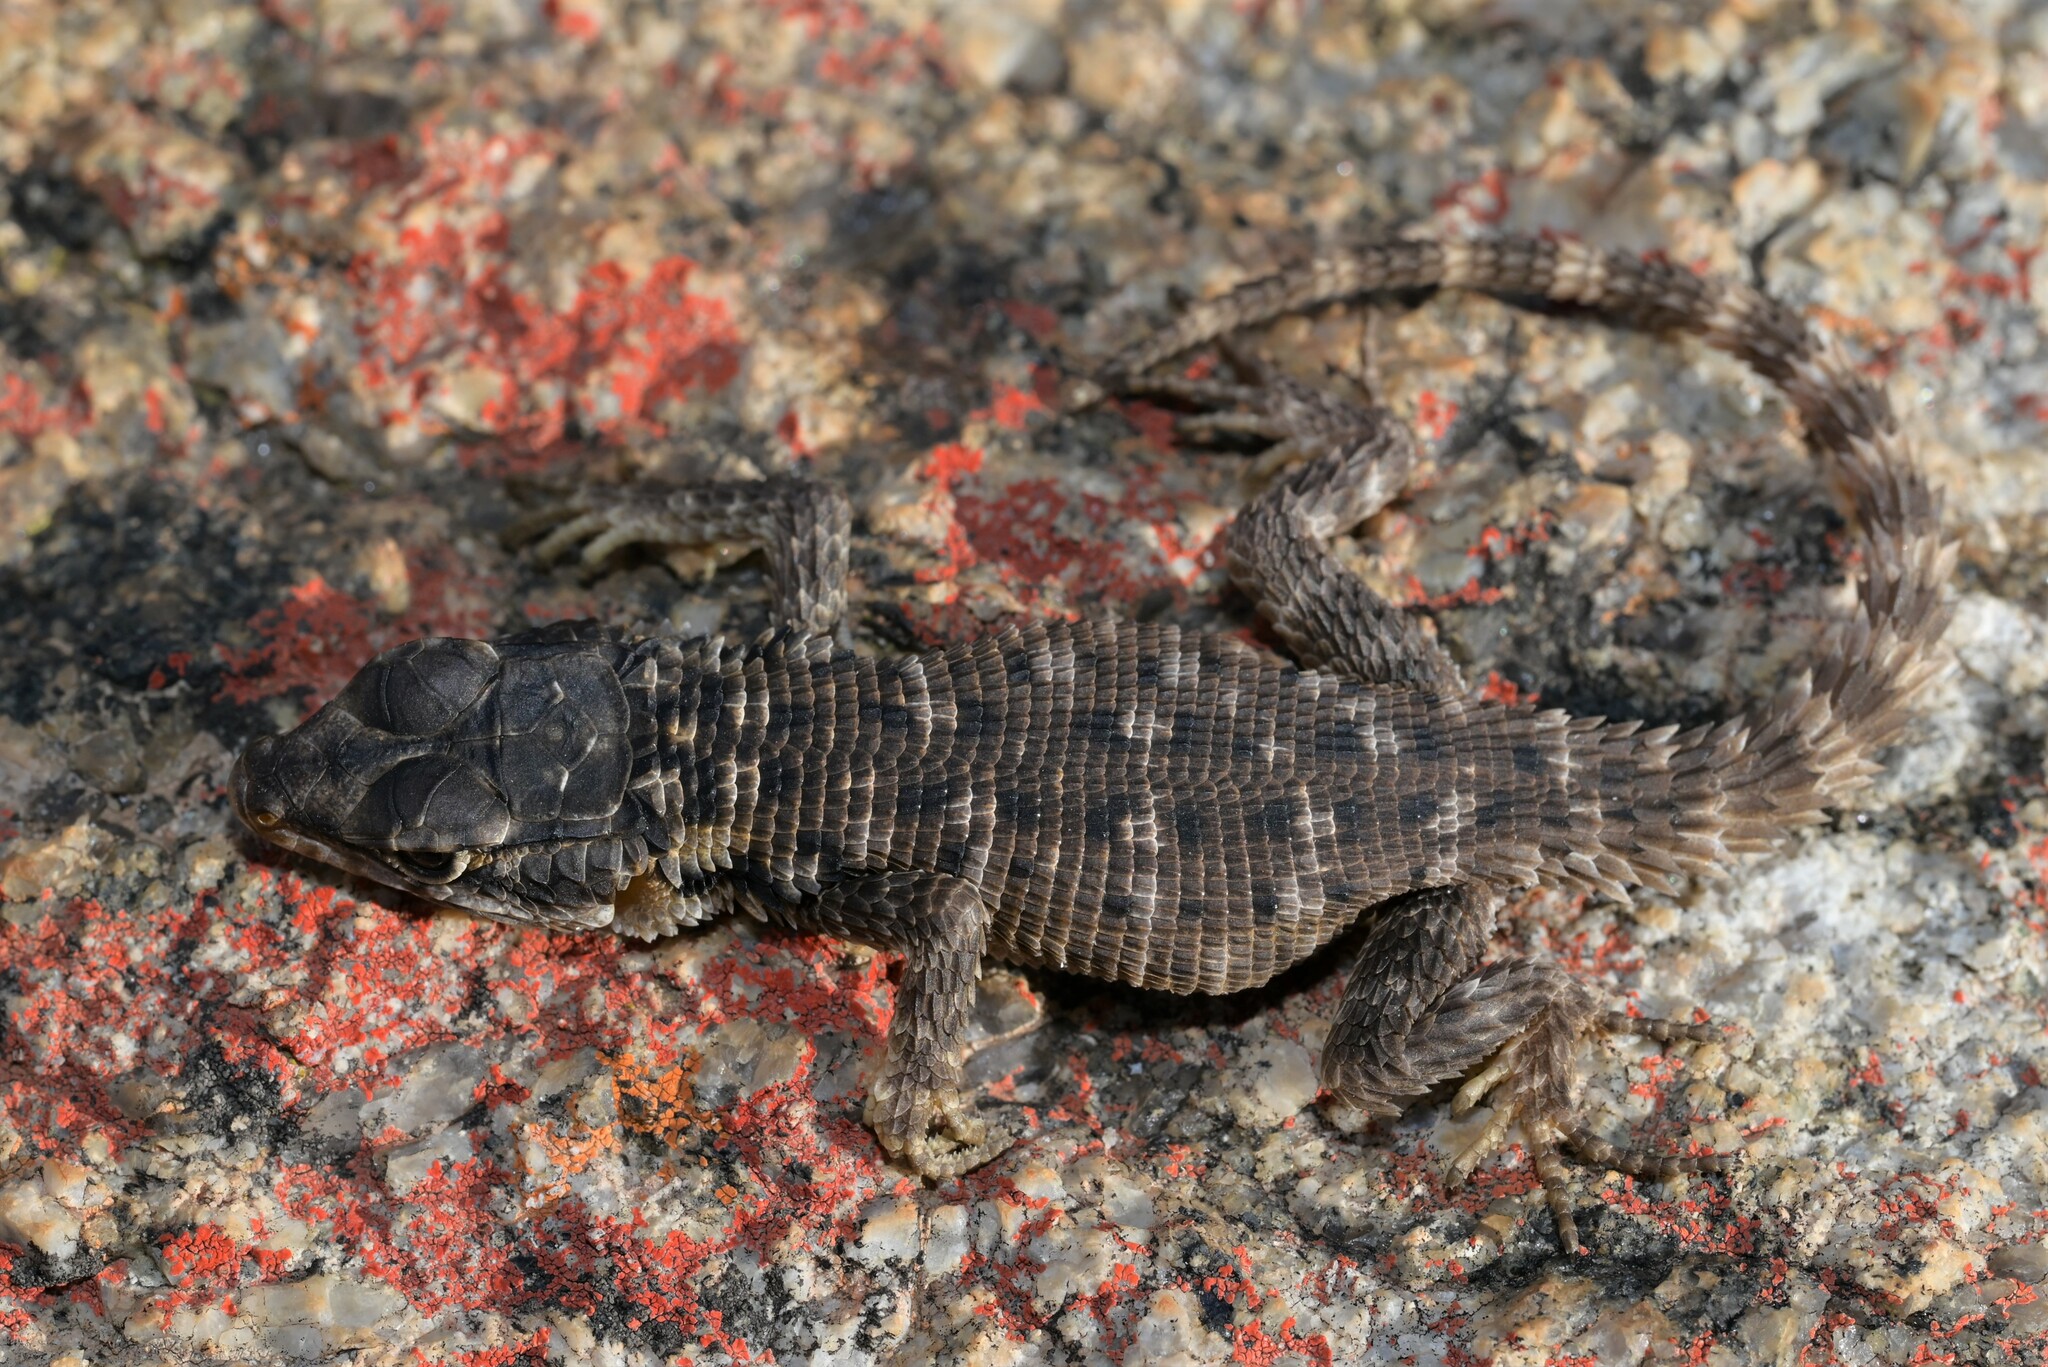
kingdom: Animalia
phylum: Chordata
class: Squamata
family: Cordylidae
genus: Karusasaurus
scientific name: Karusasaurus polyzonus
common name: Karoo girdled lizard
